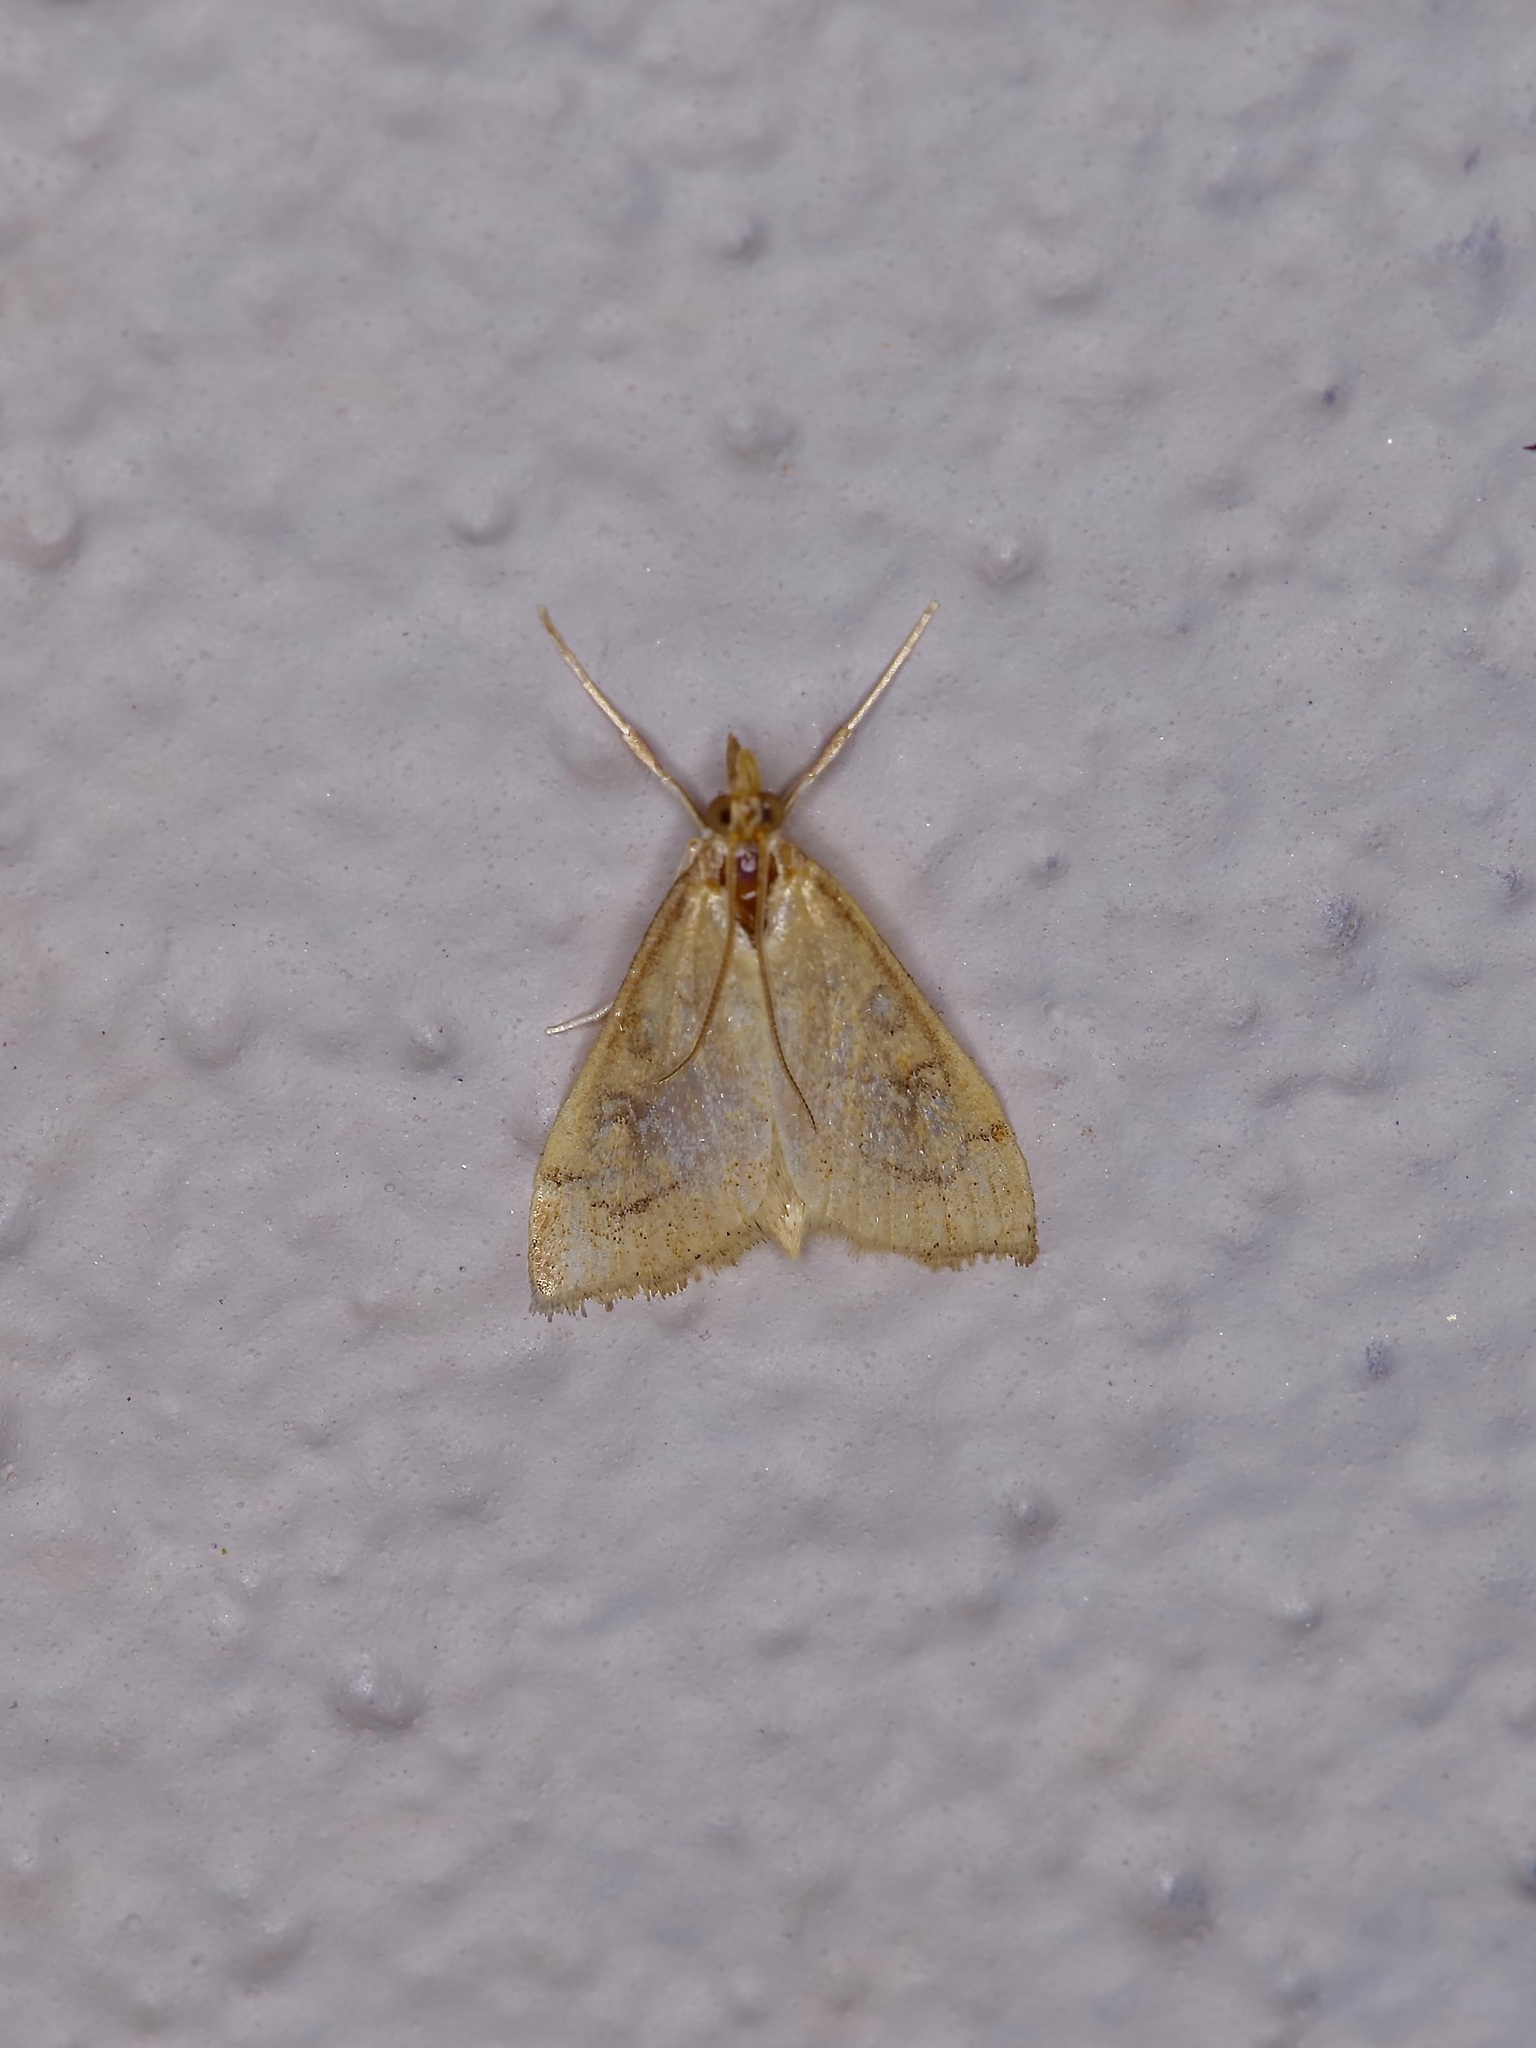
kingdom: Animalia
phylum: Arthropoda
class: Insecta
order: Lepidoptera
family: Crambidae
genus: Udea
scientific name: Udea rubigalis
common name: Celery leaftier moth
